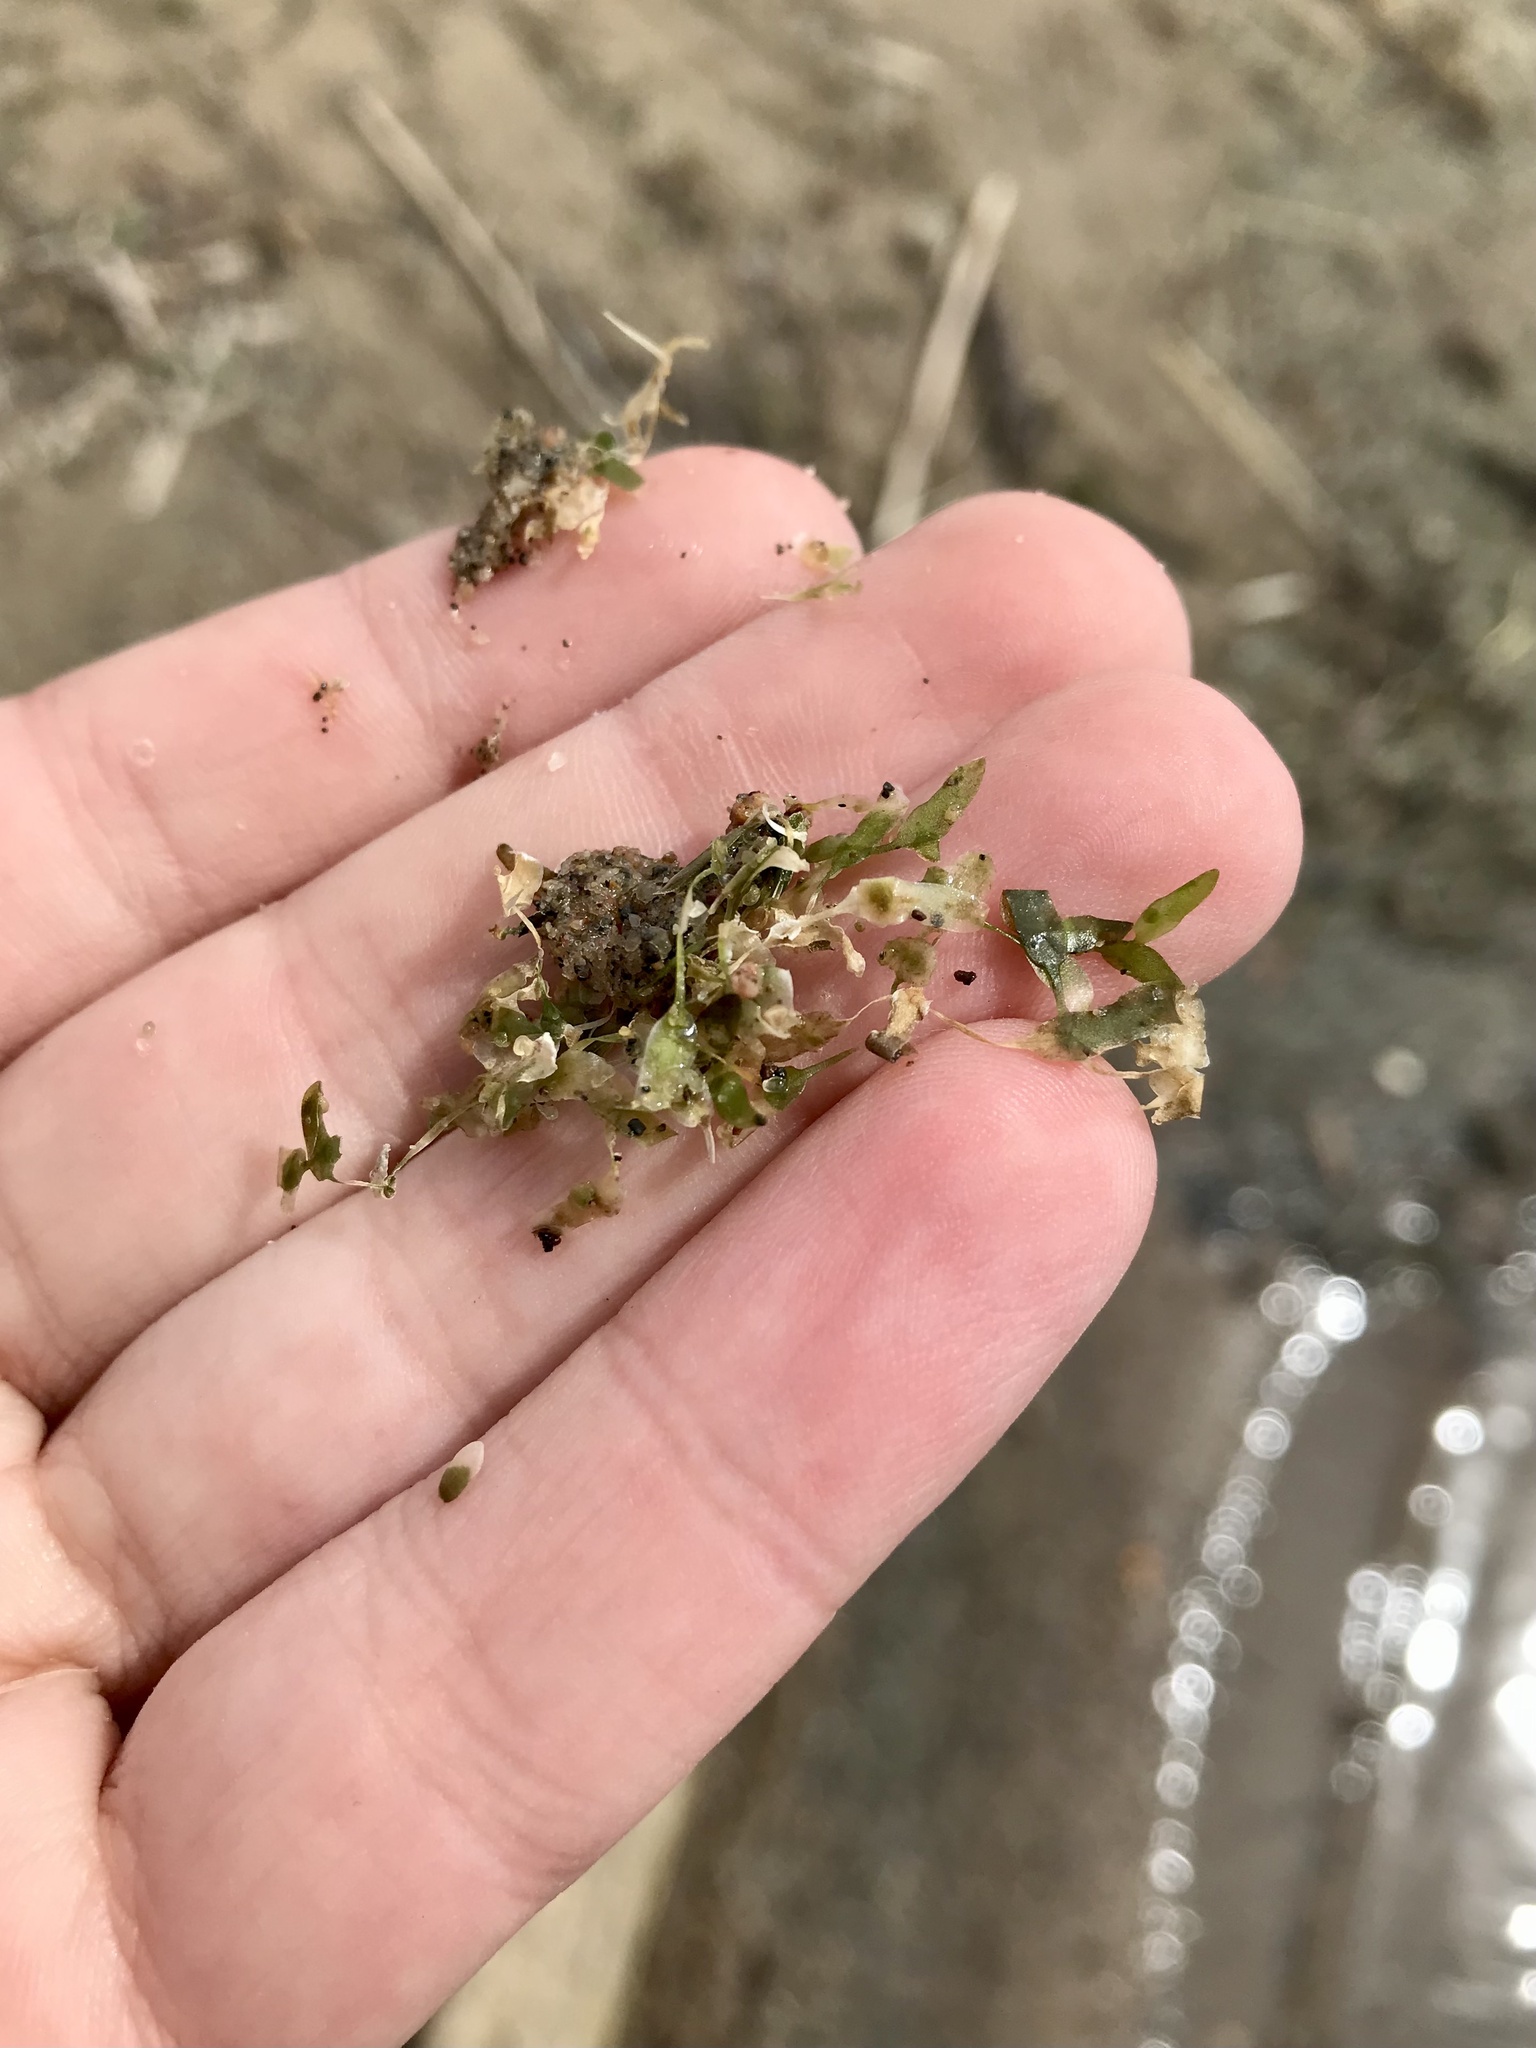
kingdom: Plantae
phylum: Tracheophyta
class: Liliopsida
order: Alismatales
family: Araceae
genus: Lemna
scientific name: Lemna trisulca
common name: Ivy-leaved duckweed
